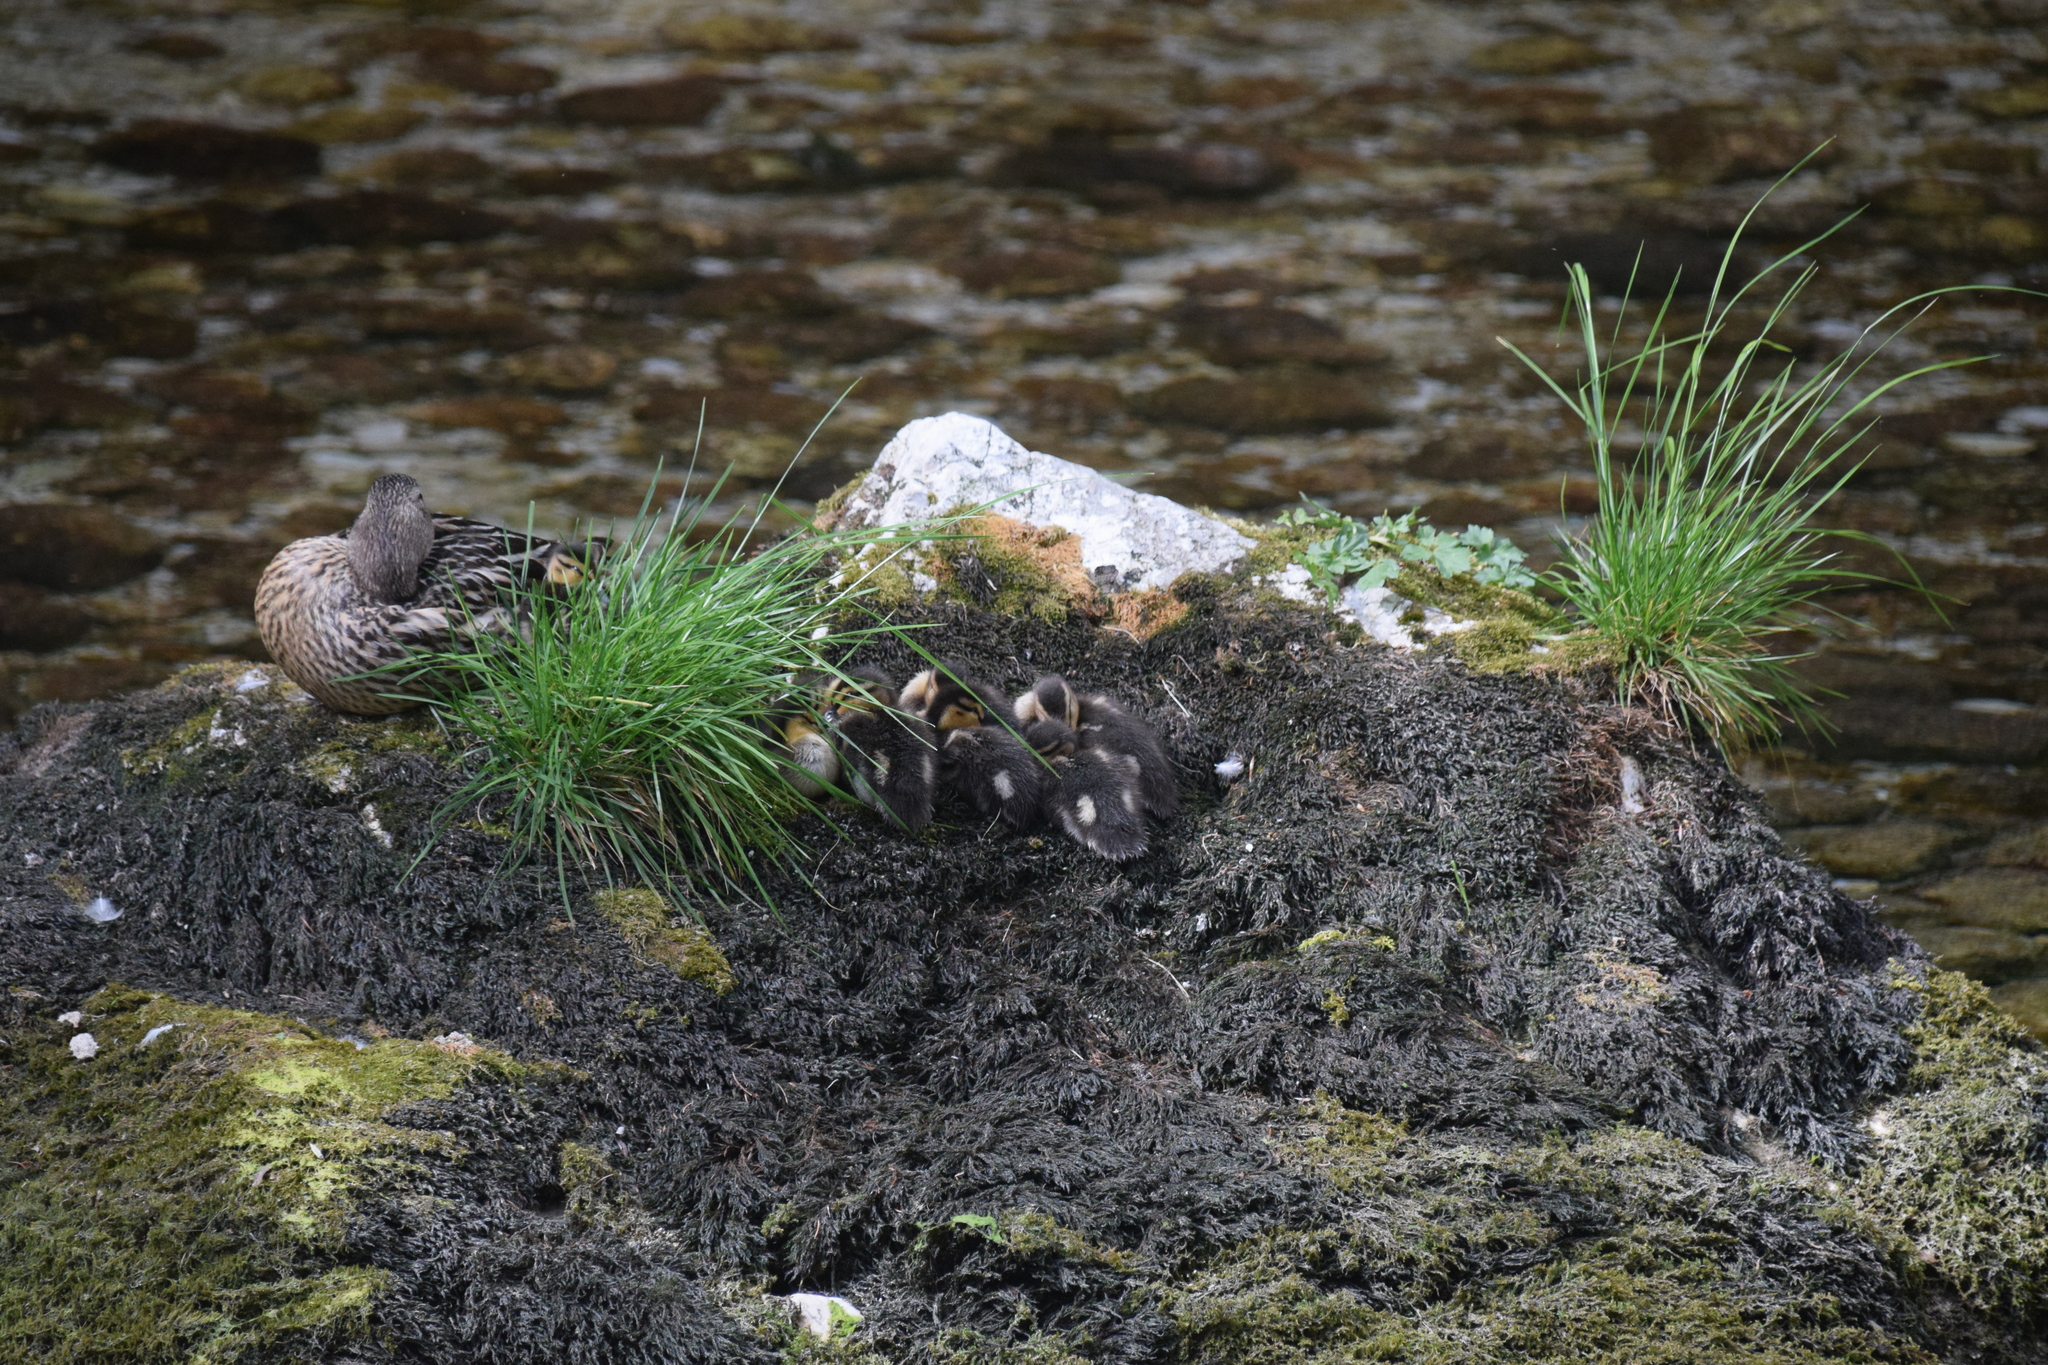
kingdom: Animalia
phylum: Chordata
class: Aves
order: Anseriformes
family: Anatidae
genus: Anas
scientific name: Anas platyrhynchos
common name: Mallard
